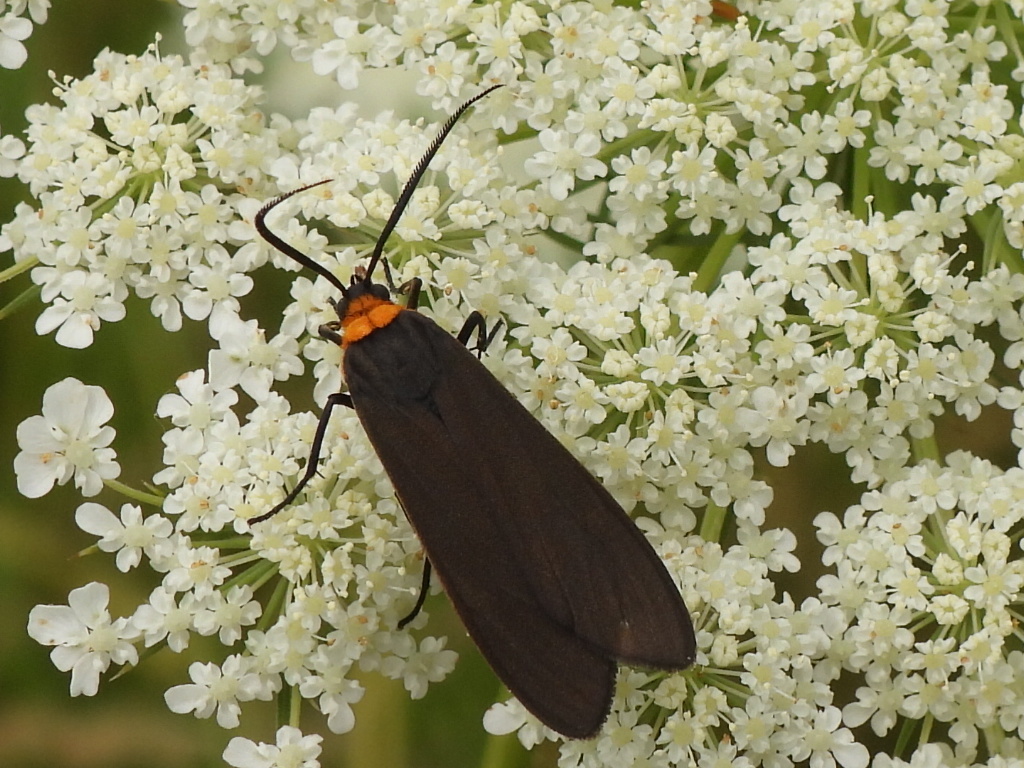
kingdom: Animalia
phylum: Arthropoda
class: Insecta
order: Lepidoptera
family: Erebidae
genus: Cisseps
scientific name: Cisseps fulvicollis
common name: Yellow-collared scape moth
